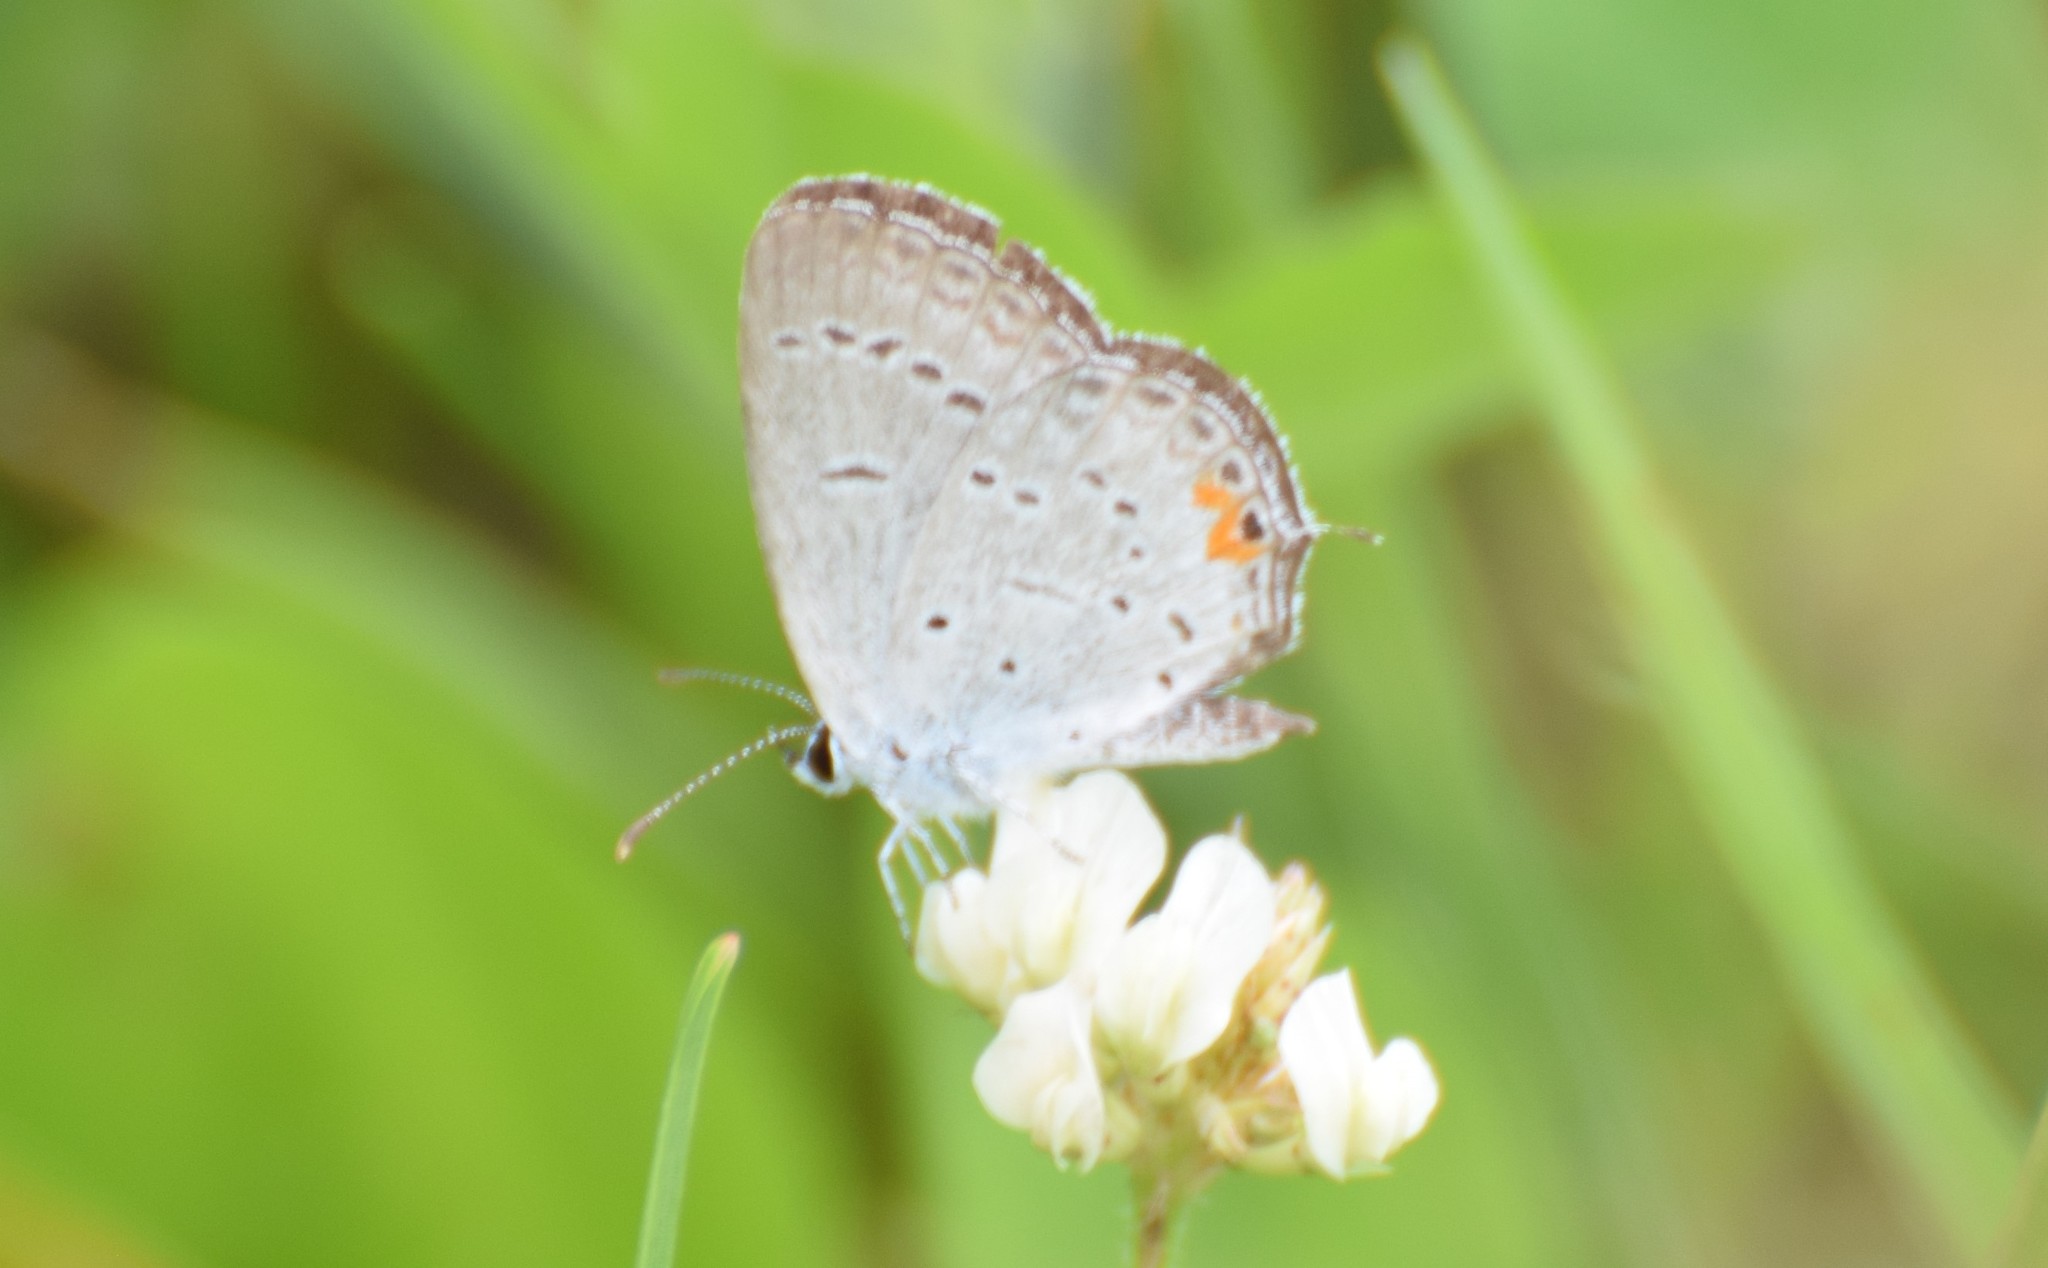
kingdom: Animalia
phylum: Arthropoda
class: Insecta
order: Lepidoptera
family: Lycaenidae
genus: Elkalyce
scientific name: Elkalyce comyntas
